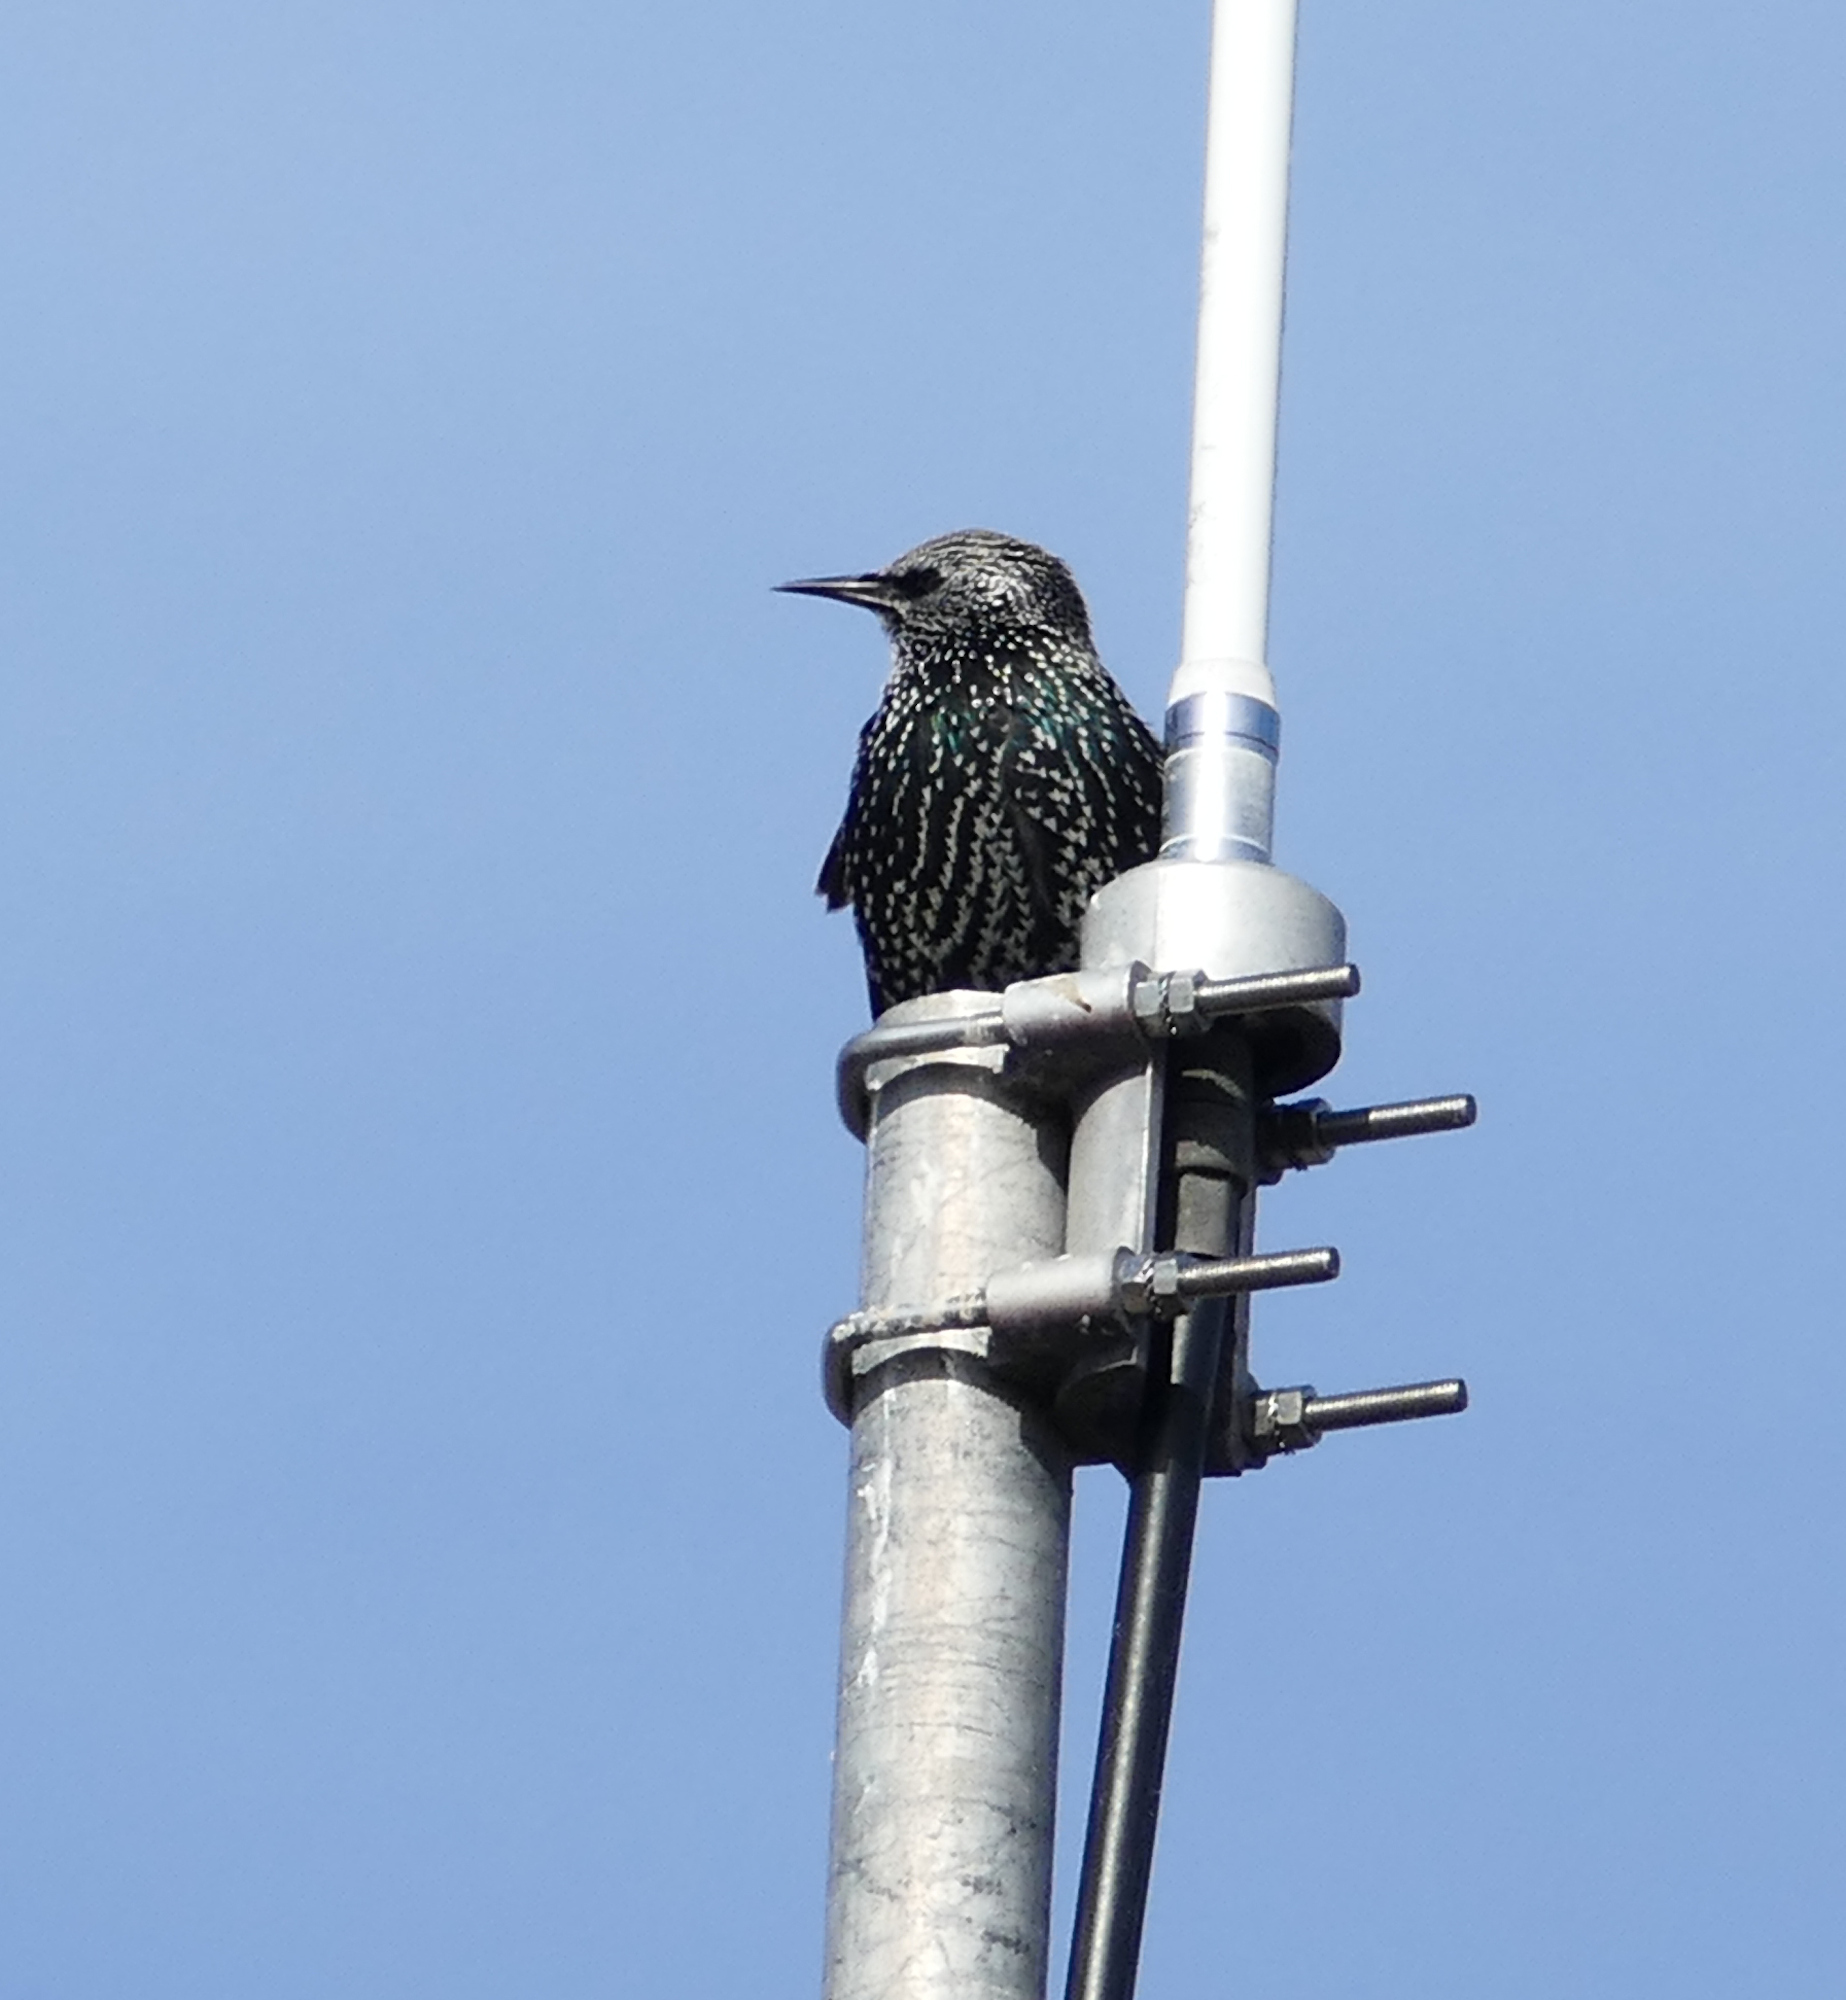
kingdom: Animalia
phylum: Chordata
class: Aves
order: Passeriformes
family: Sturnidae
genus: Sturnus
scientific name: Sturnus vulgaris
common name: Common starling
